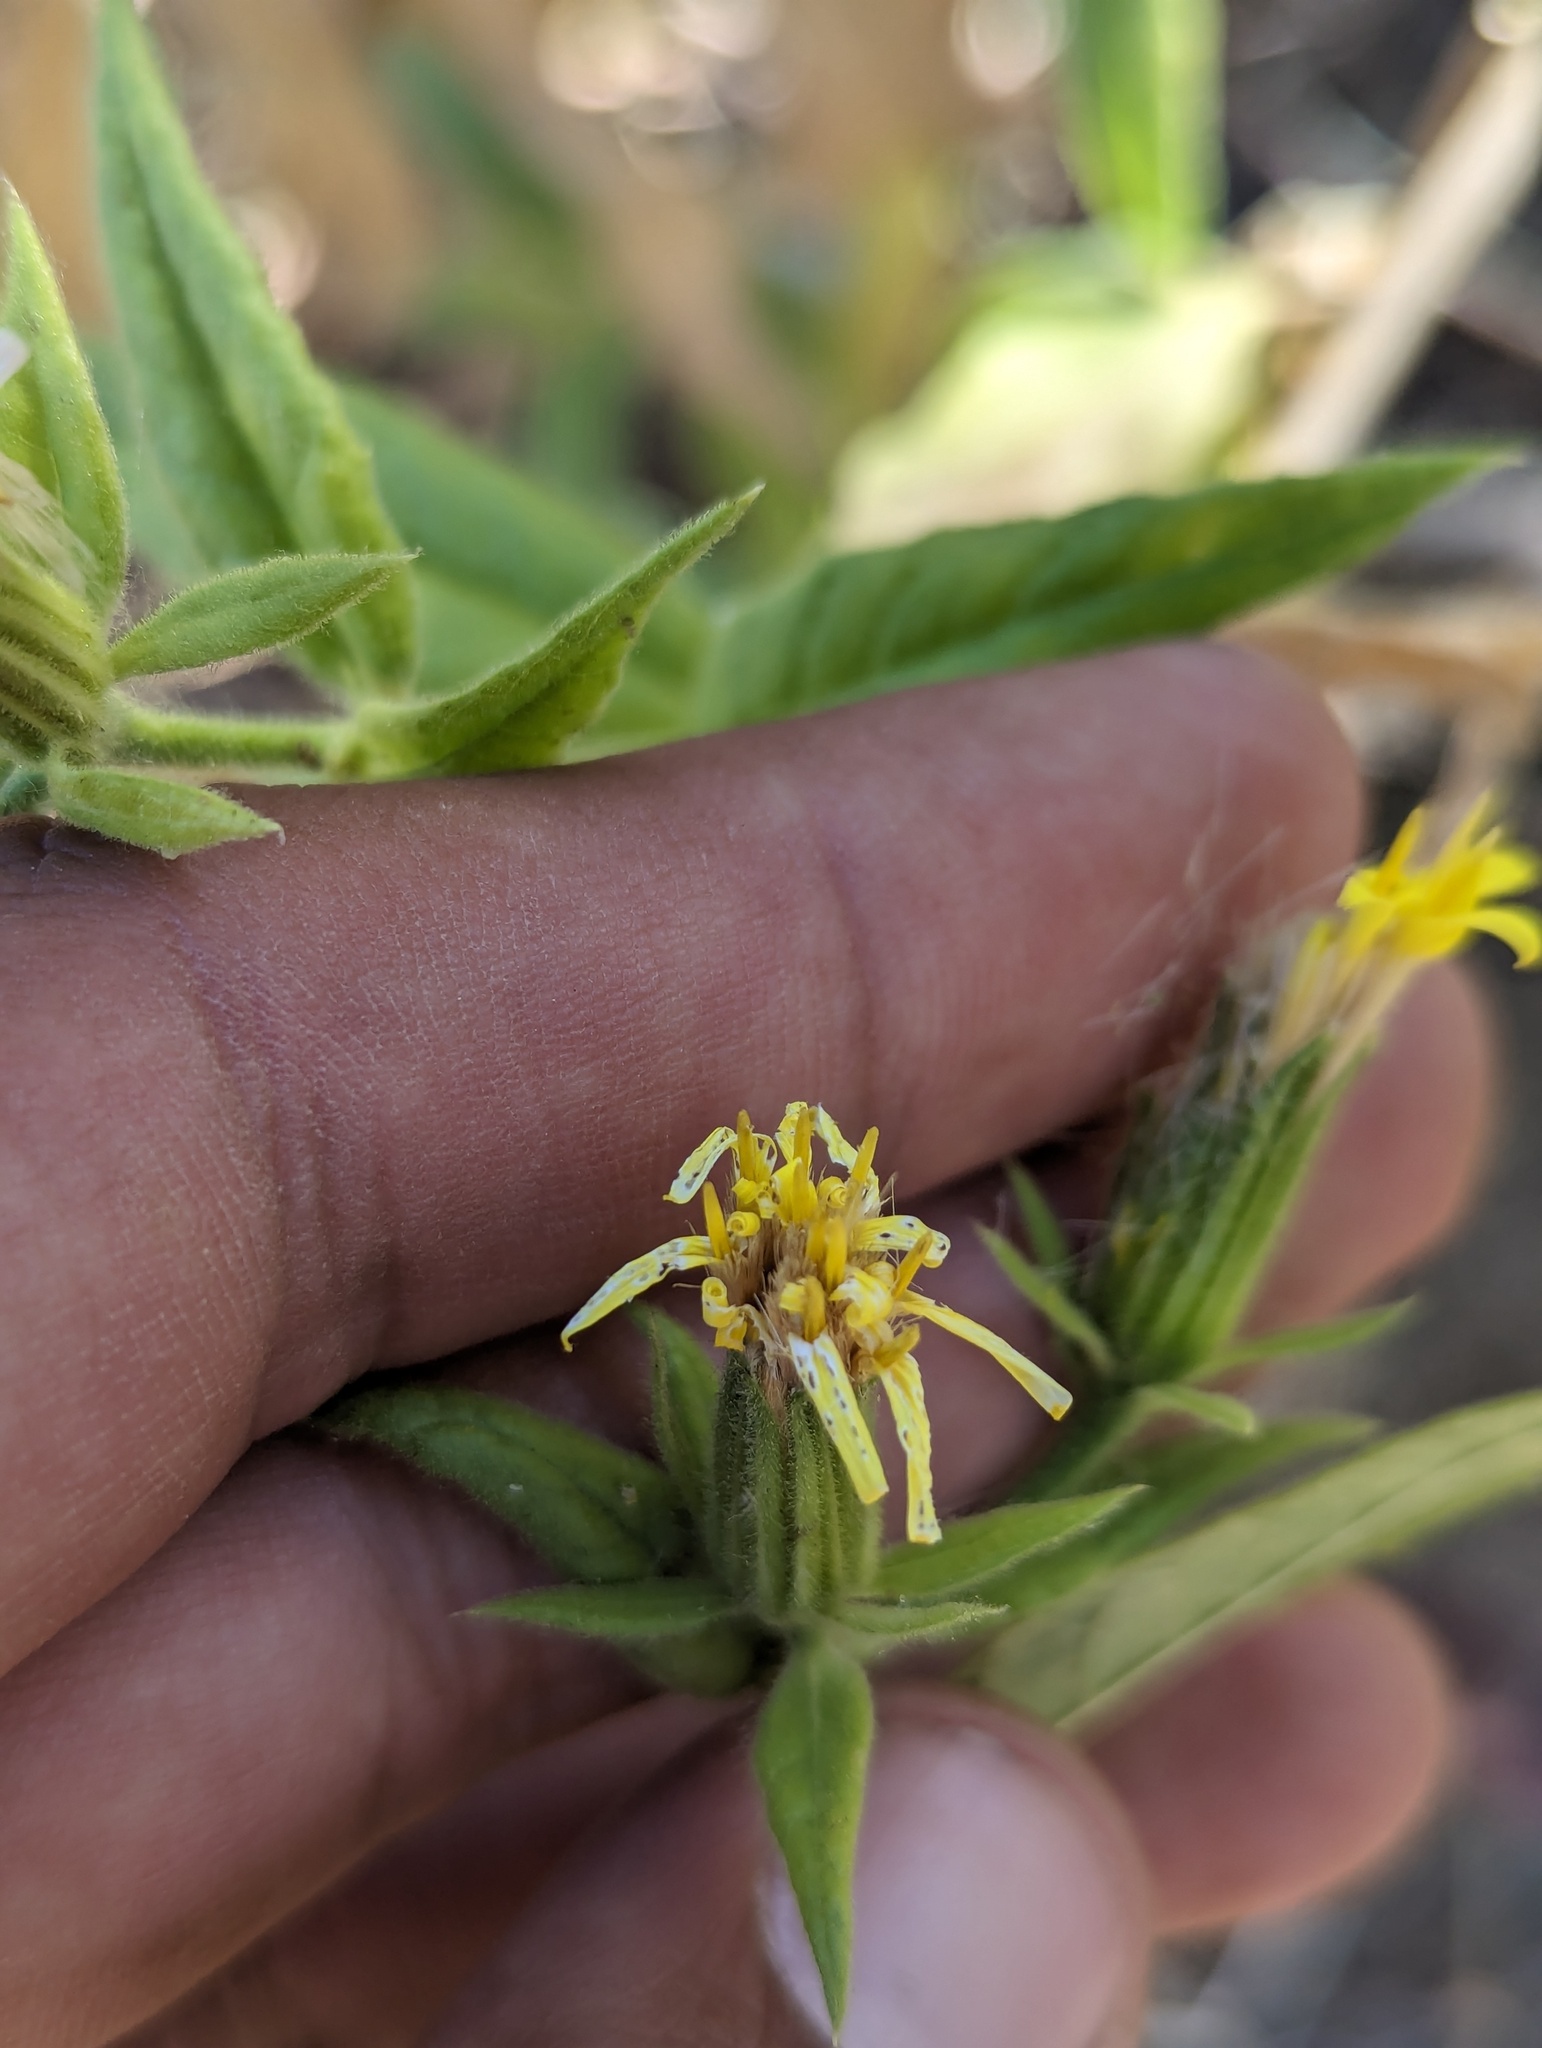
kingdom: Plantae
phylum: Tracheophyta
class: Magnoliopsida
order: Asterales
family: Asteraceae
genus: Trixis
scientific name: Trixis californica
